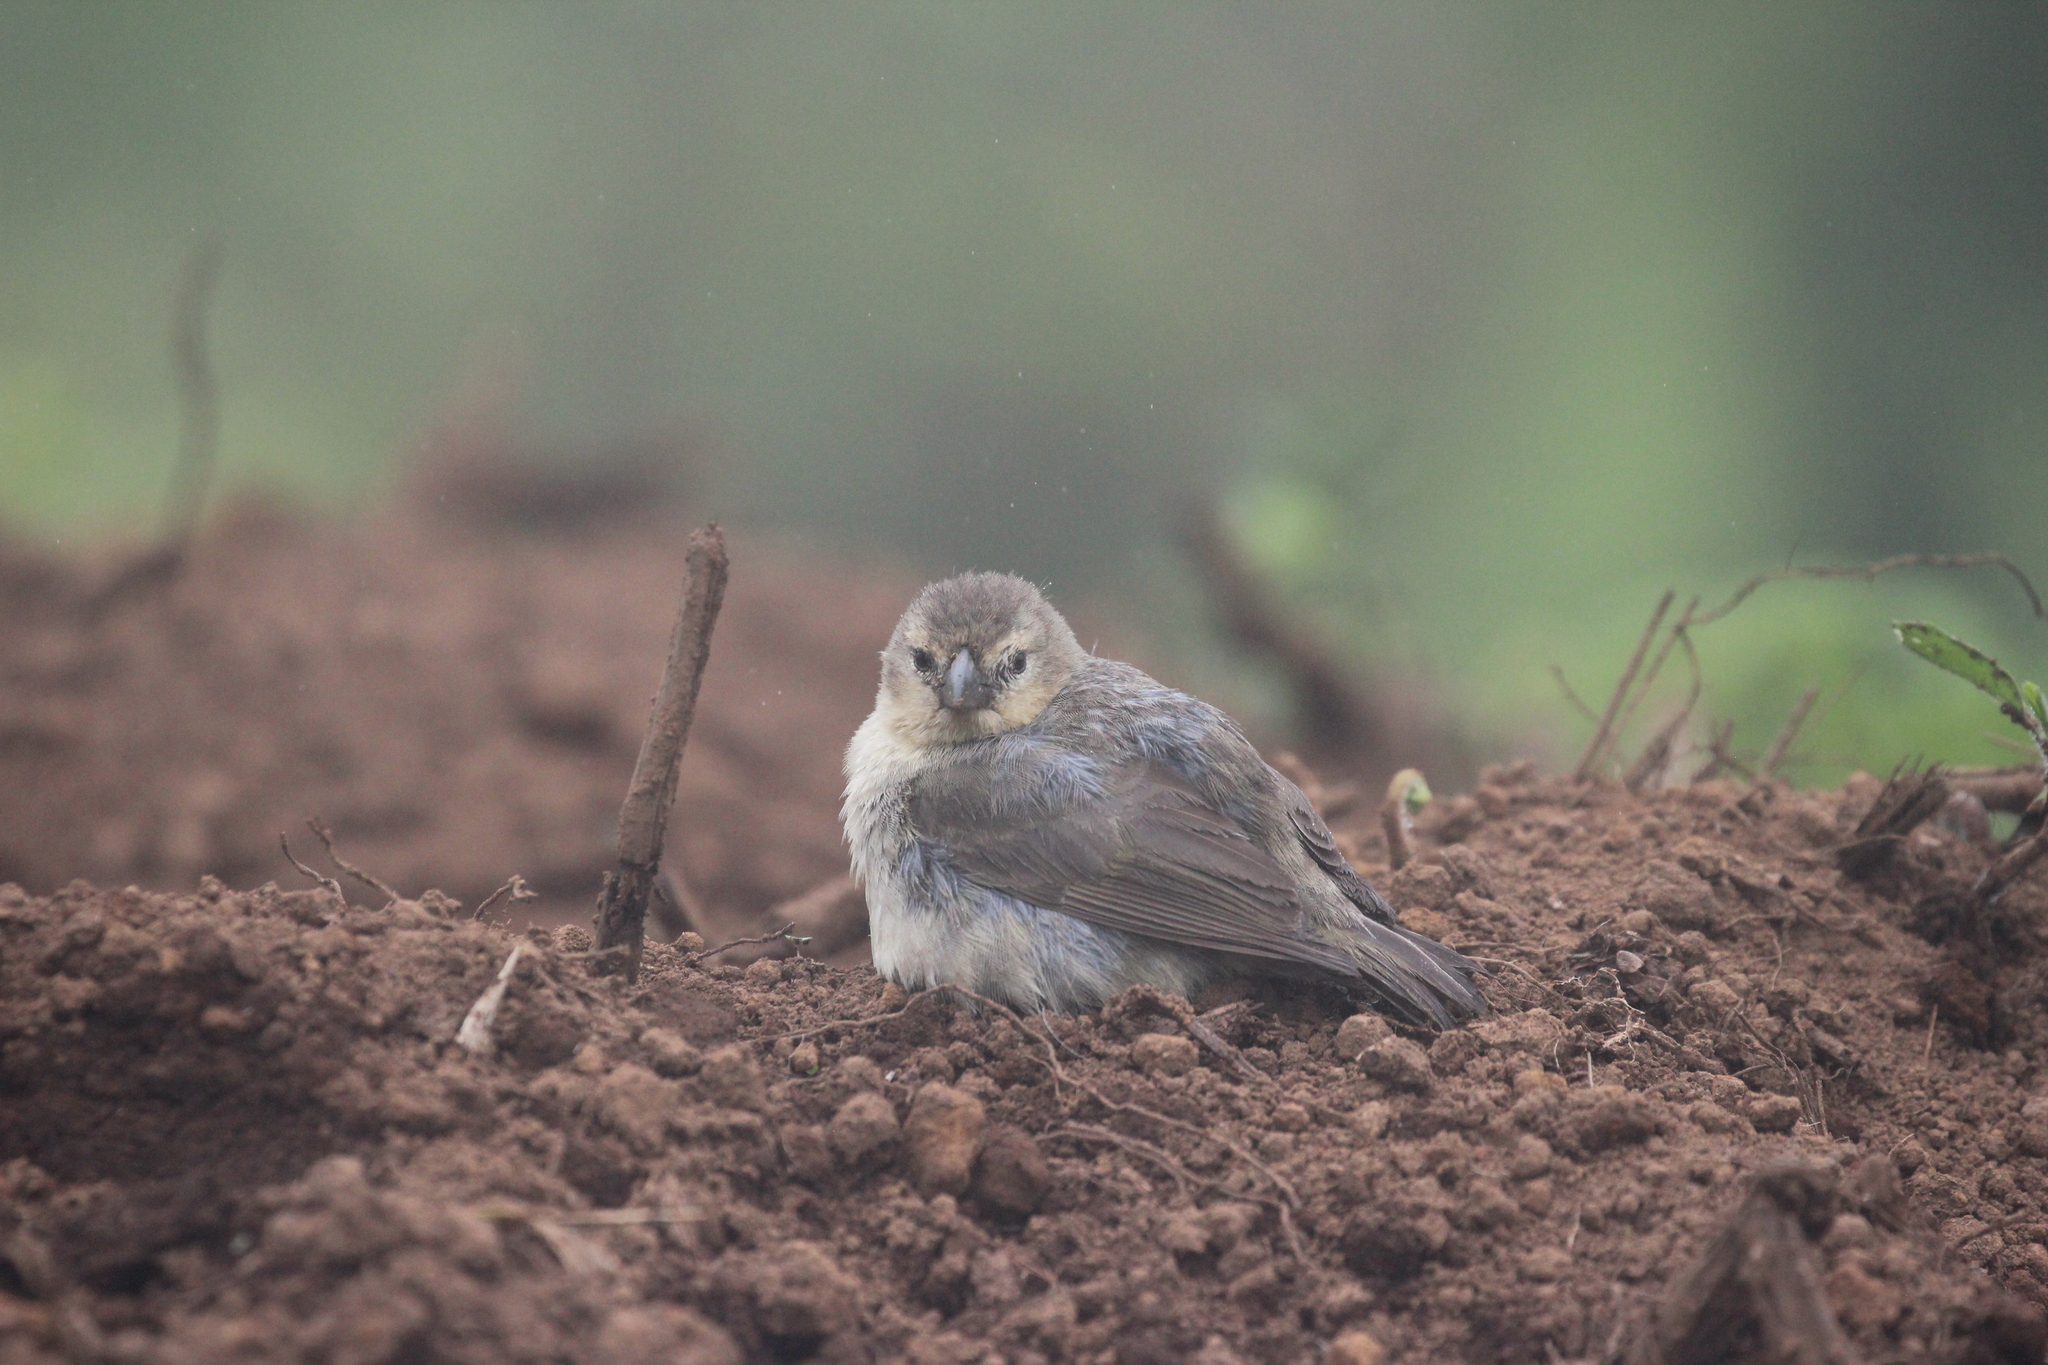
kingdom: Animalia
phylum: Chordata
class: Aves
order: Passeriformes
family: Thraupidae
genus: Camarhynchus
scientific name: Camarhynchus pallidus
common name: Woodpecker finch
